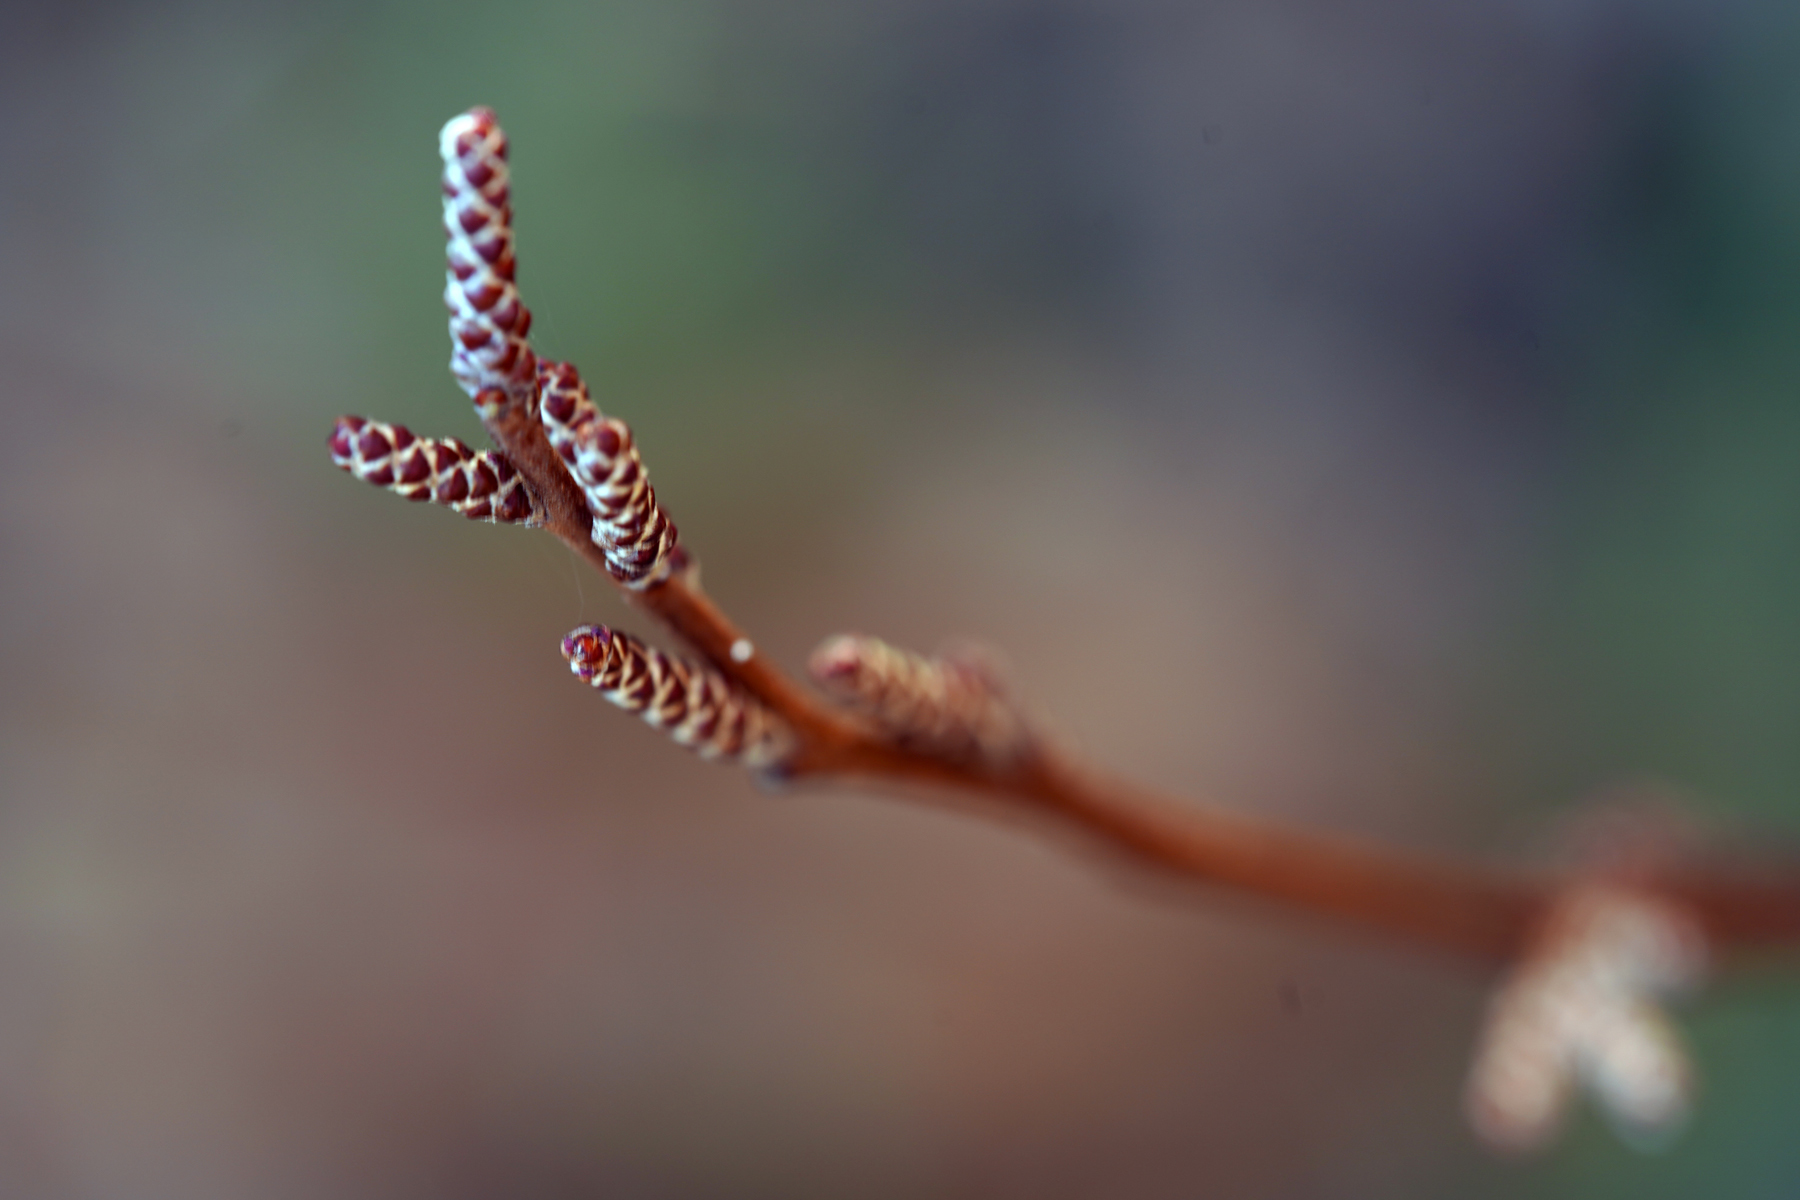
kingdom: Plantae
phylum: Tracheophyta
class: Magnoliopsida
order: Sapindales
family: Anacardiaceae
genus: Rhus
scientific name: Rhus aromatica
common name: Aromatic sumac
